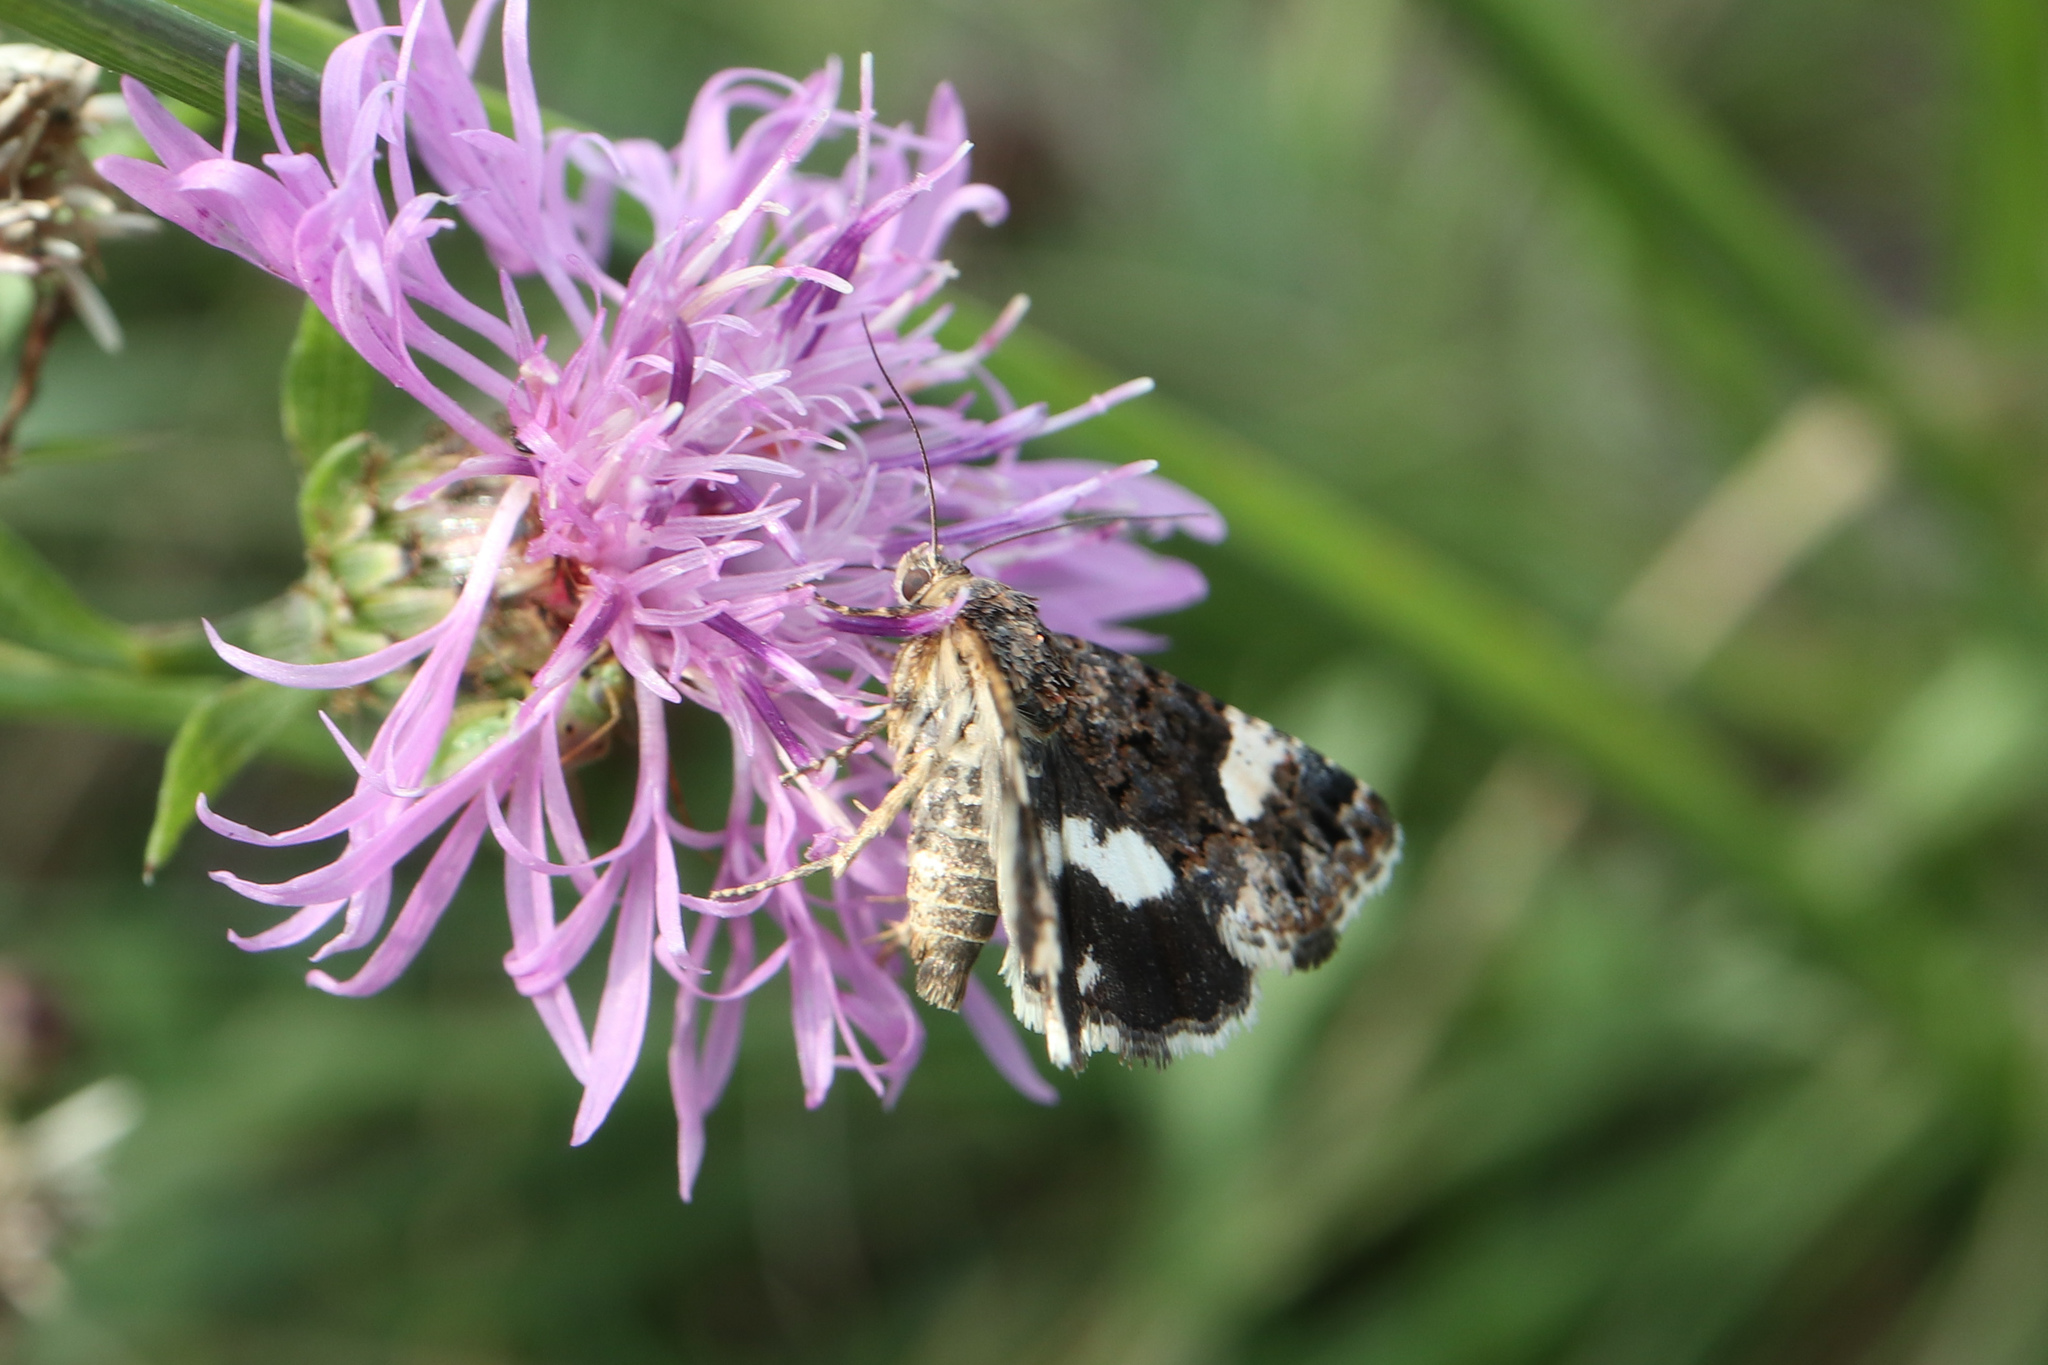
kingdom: Animalia
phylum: Arthropoda
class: Insecta
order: Lepidoptera
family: Erebidae
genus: Tyta
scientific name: Tyta luctuosa
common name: Four-spotted
